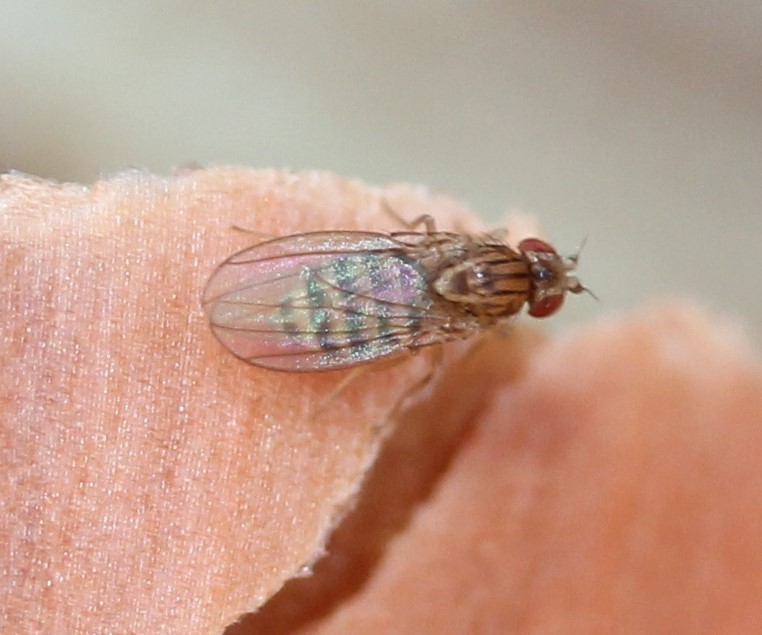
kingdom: Animalia
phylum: Arthropoda
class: Insecta
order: Diptera
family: Drosophilidae
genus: Drosophila
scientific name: Drosophila busckii
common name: Pomace fly
